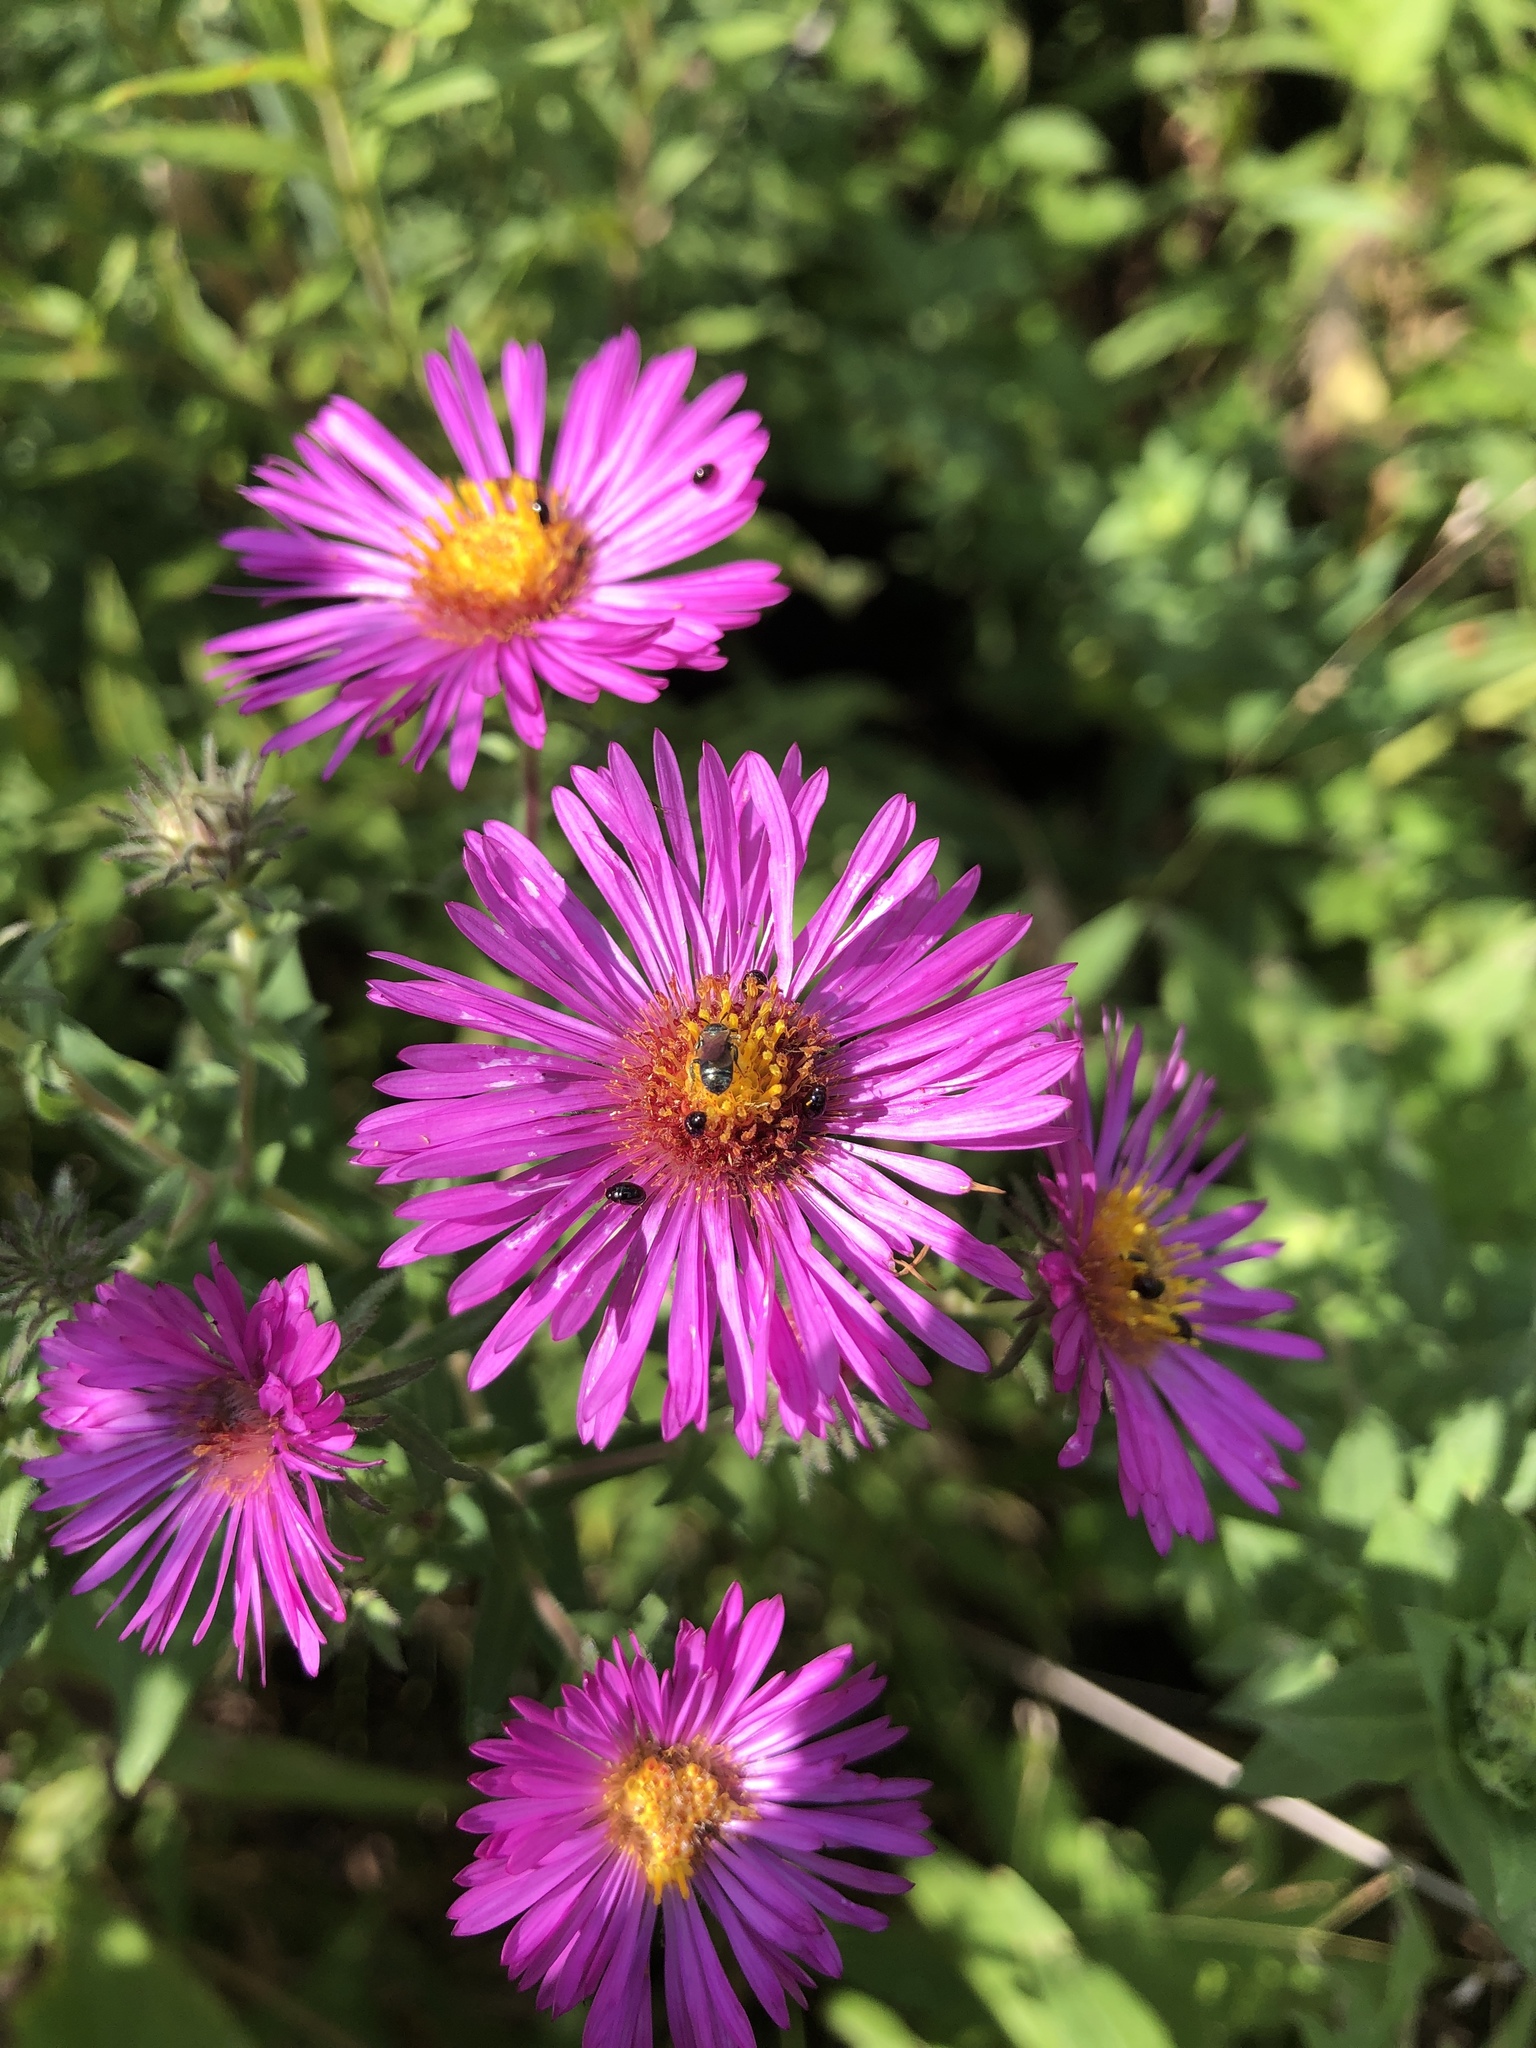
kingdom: Plantae
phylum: Tracheophyta
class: Magnoliopsida
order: Asterales
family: Asteraceae
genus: Symphyotrichum
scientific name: Symphyotrichum novae-angliae
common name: Michaelmas daisy
